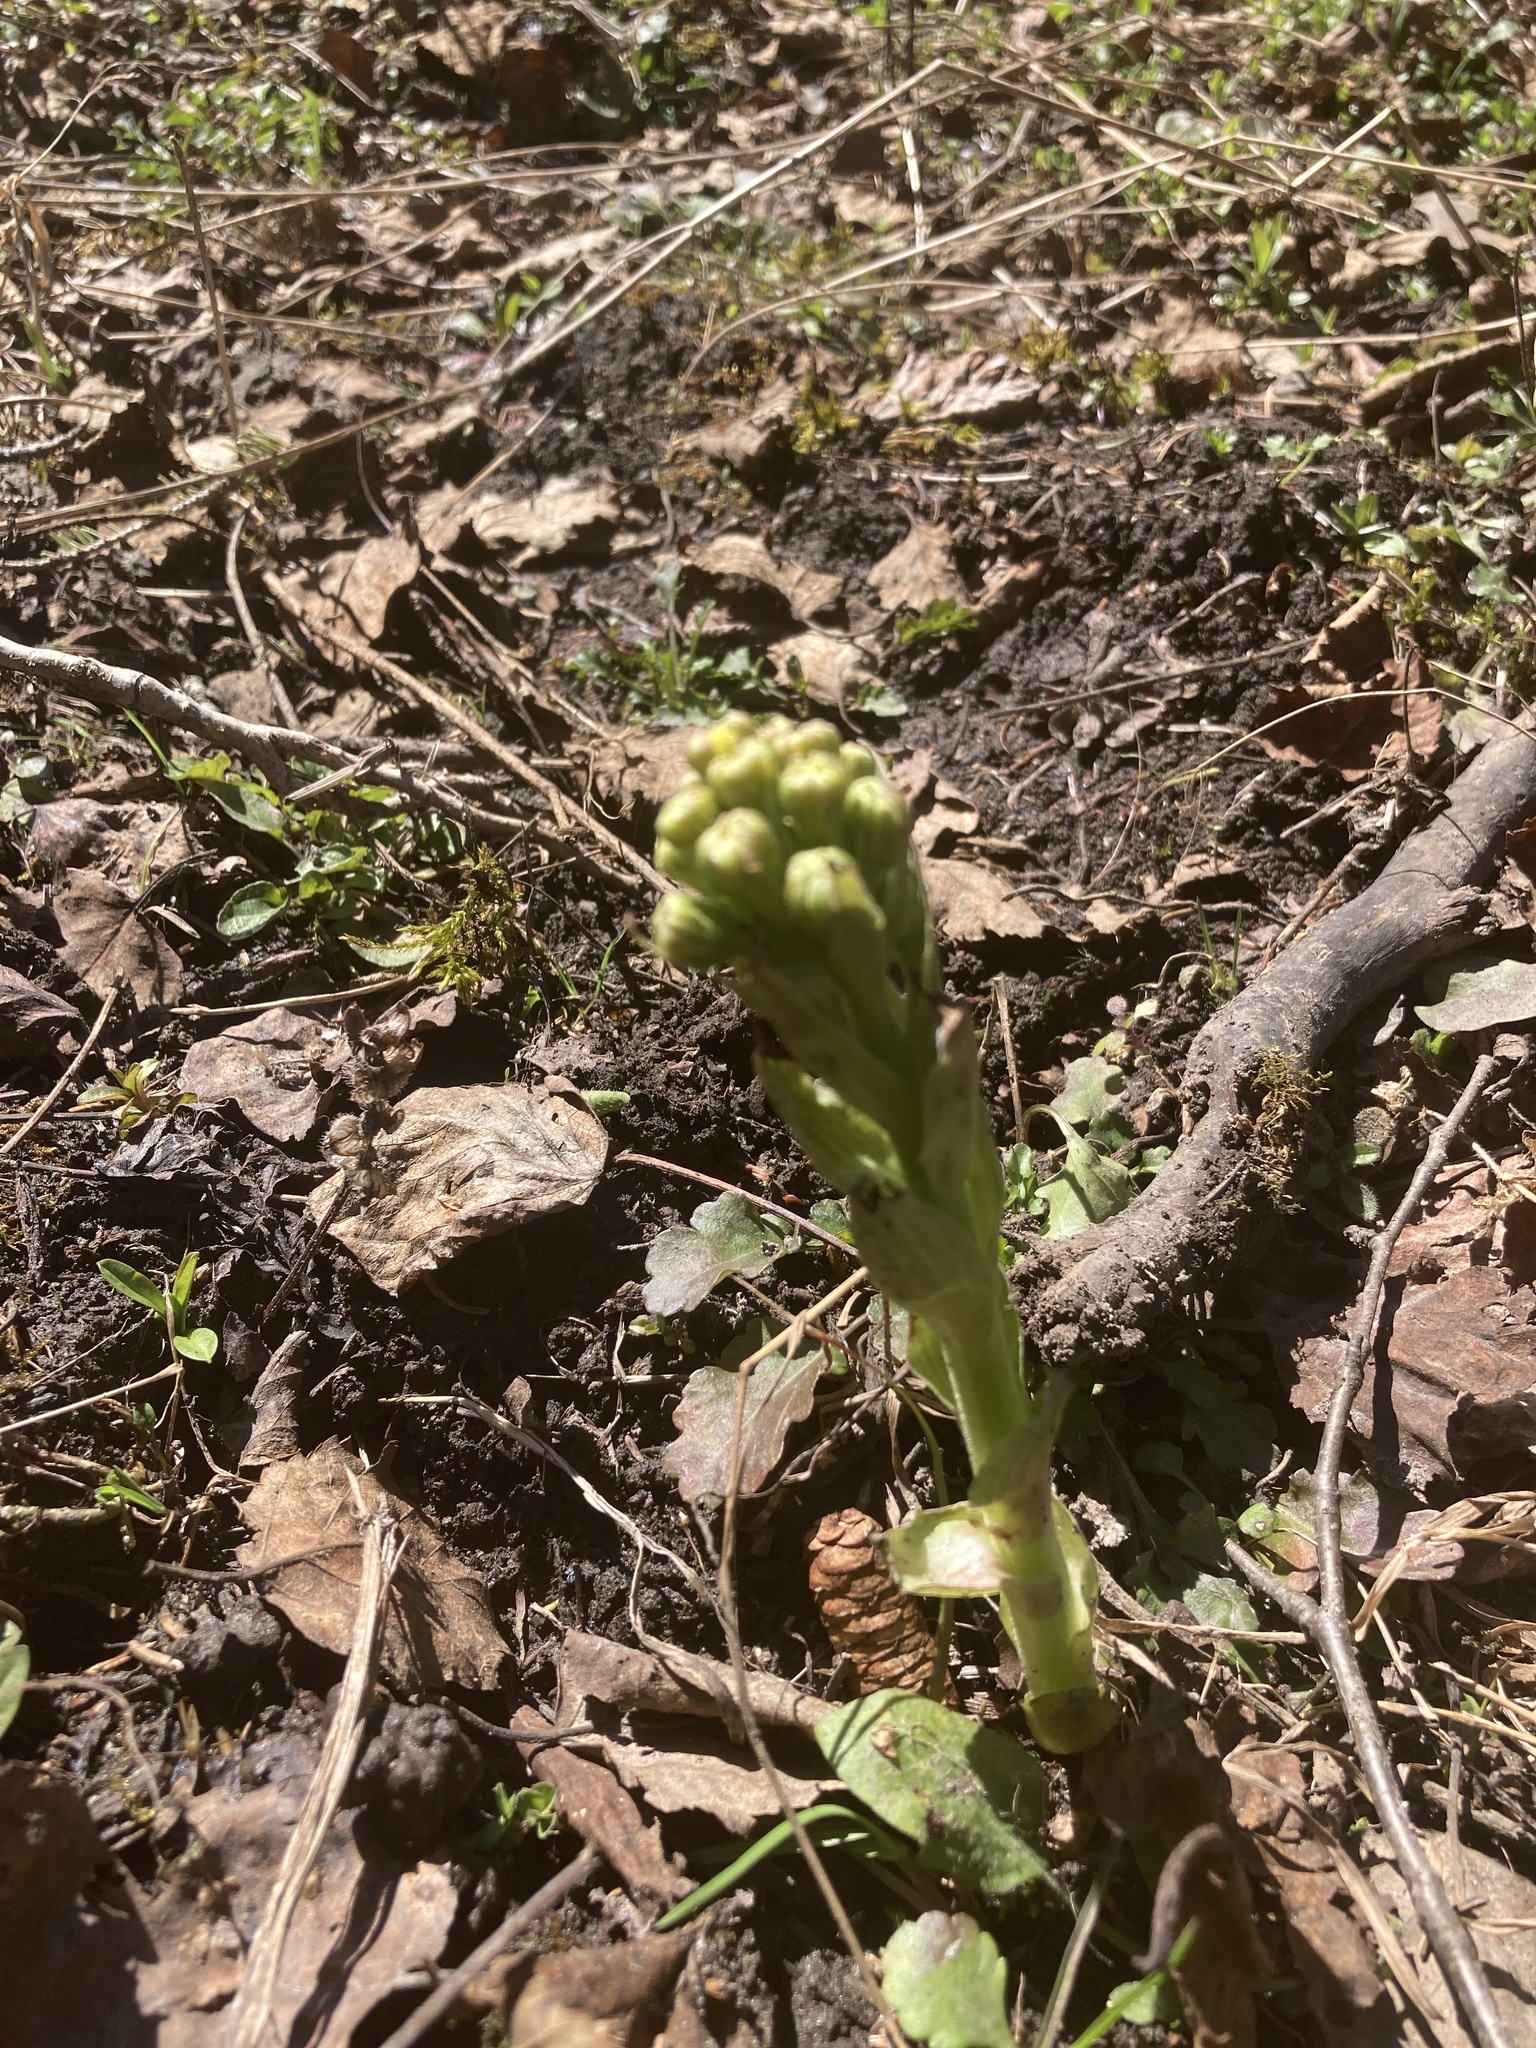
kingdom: Plantae
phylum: Tracheophyta
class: Magnoliopsida
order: Asterales
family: Asteraceae
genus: Petasites
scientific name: Petasites frigidus
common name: Arctic butterbur
